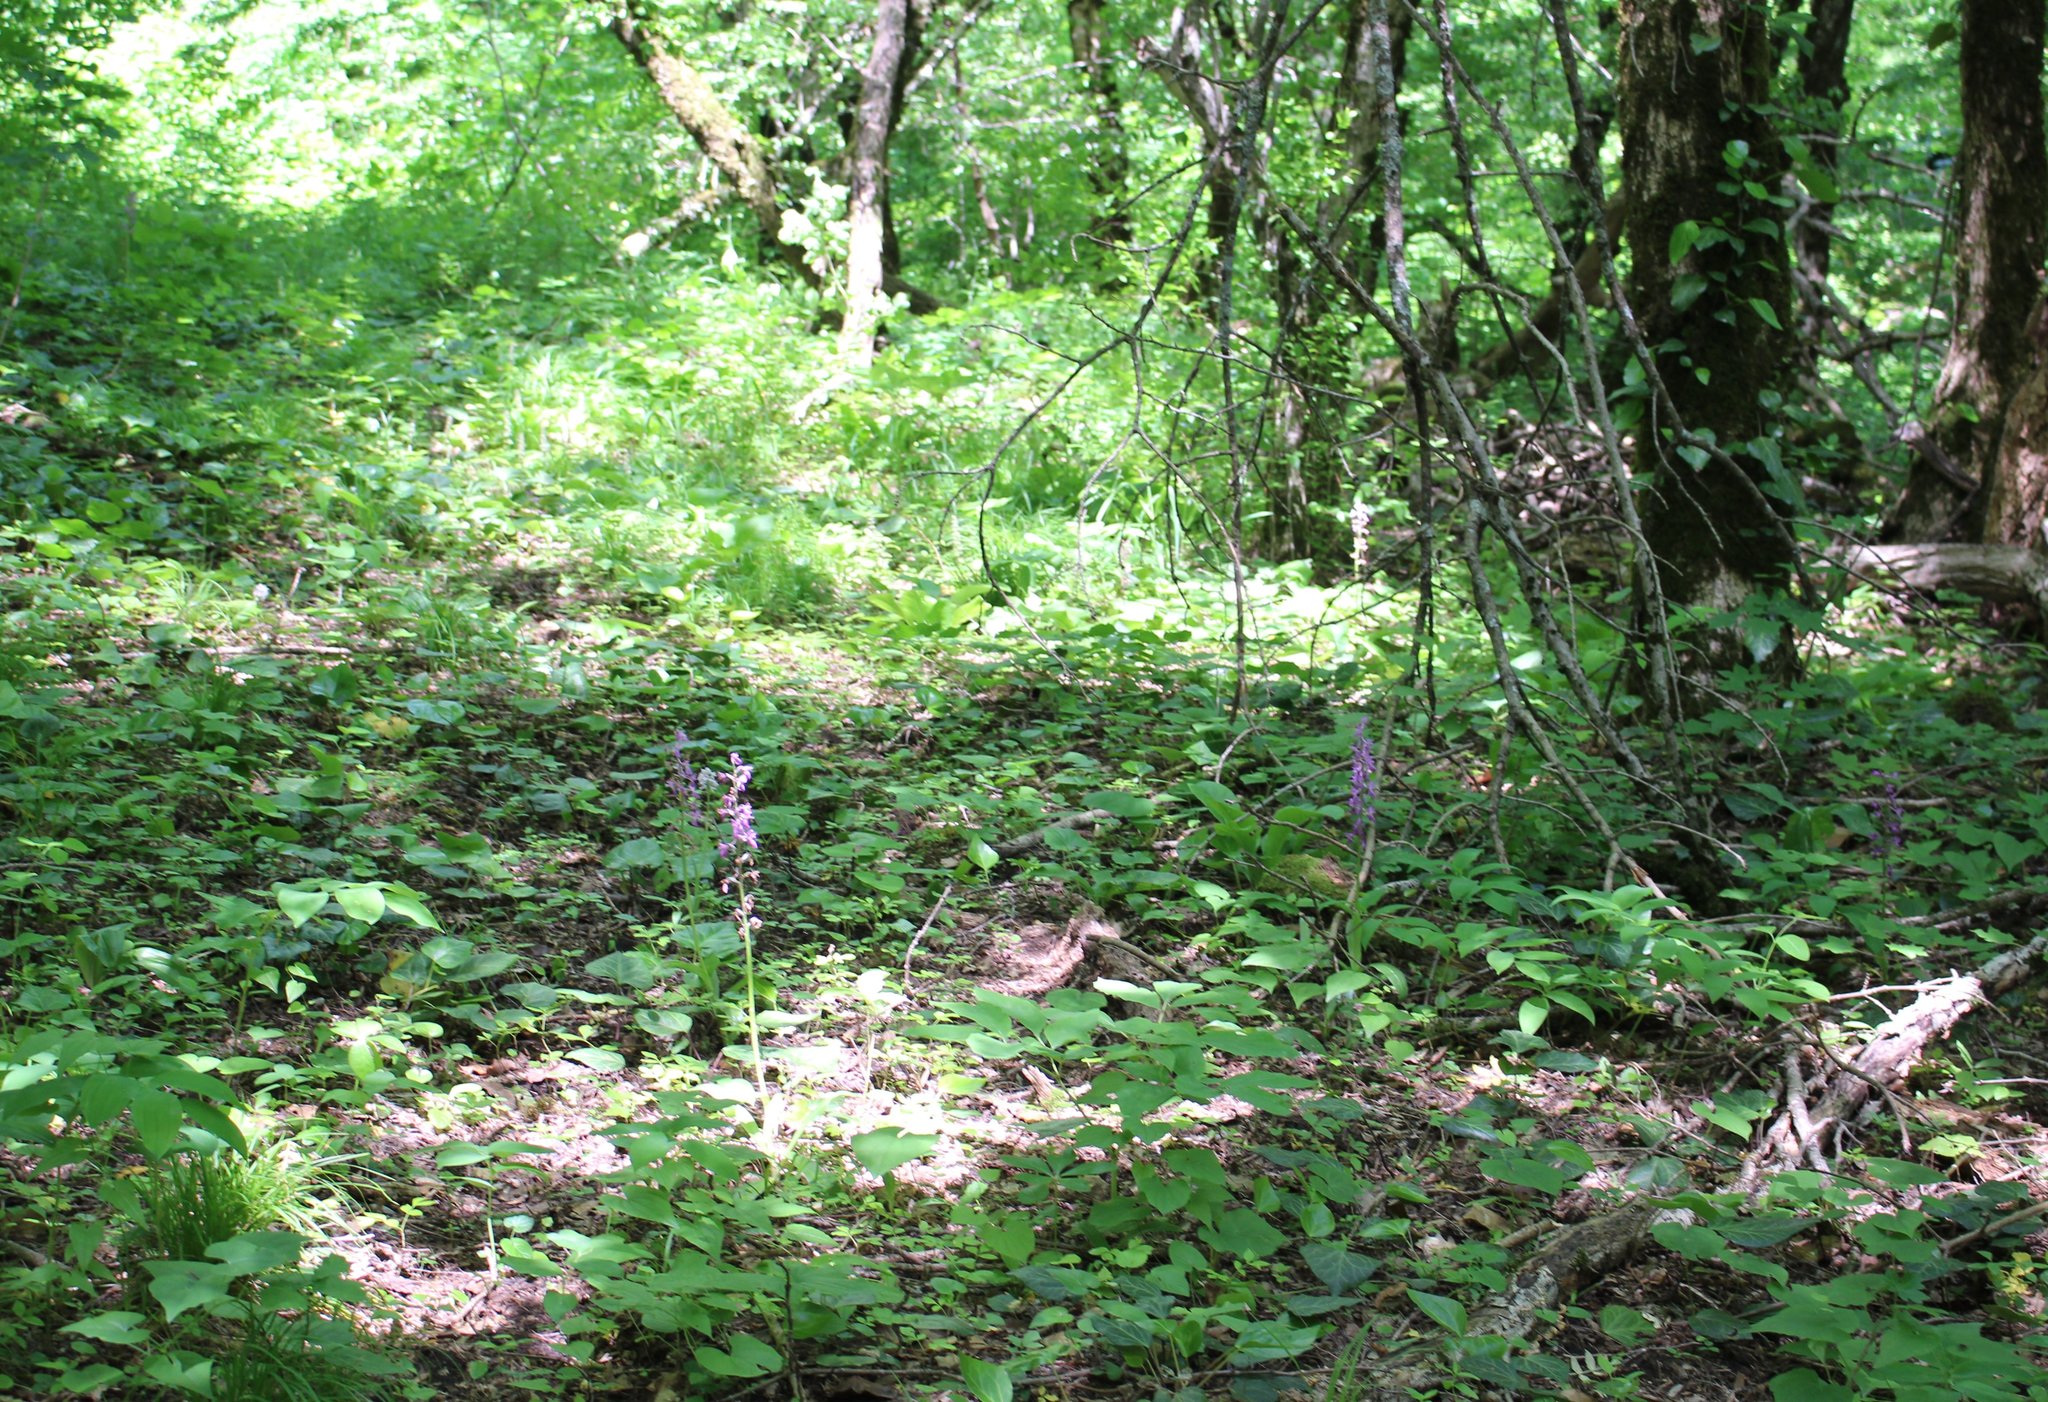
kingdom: Plantae
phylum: Tracheophyta
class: Liliopsida
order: Asparagales
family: Orchidaceae
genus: Orchis
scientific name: Orchis mascula
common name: Early-purple orchid
